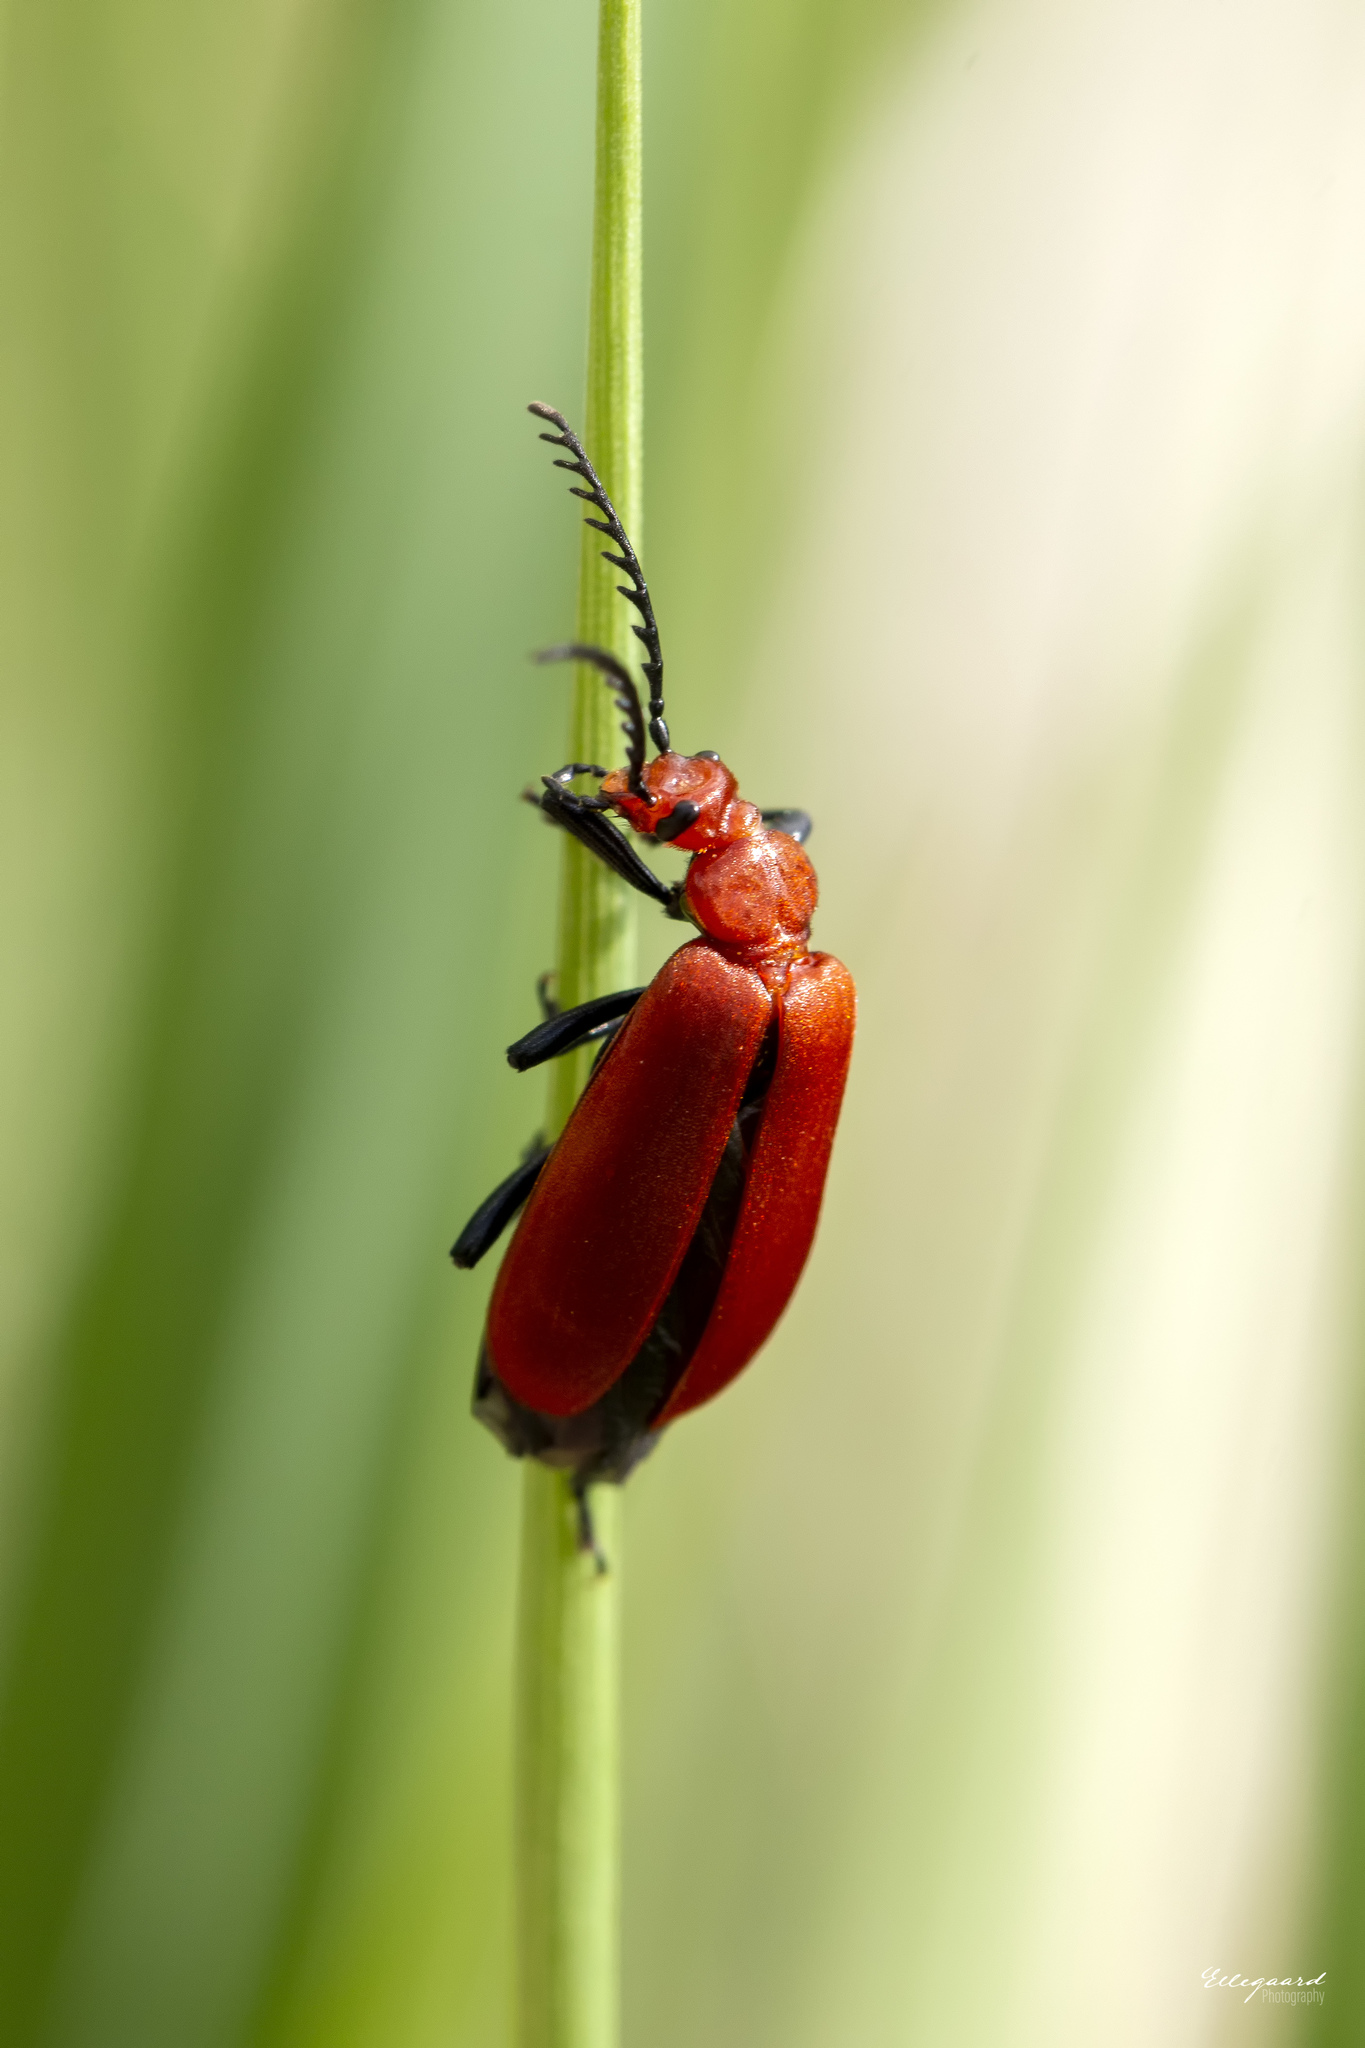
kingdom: Animalia
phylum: Arthropoda
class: Insecta
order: Coleoptera
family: Pyrochroidae
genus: Pyrochroa
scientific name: Pyrochroa serraticornis
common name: Red-headed cardinal beetle
